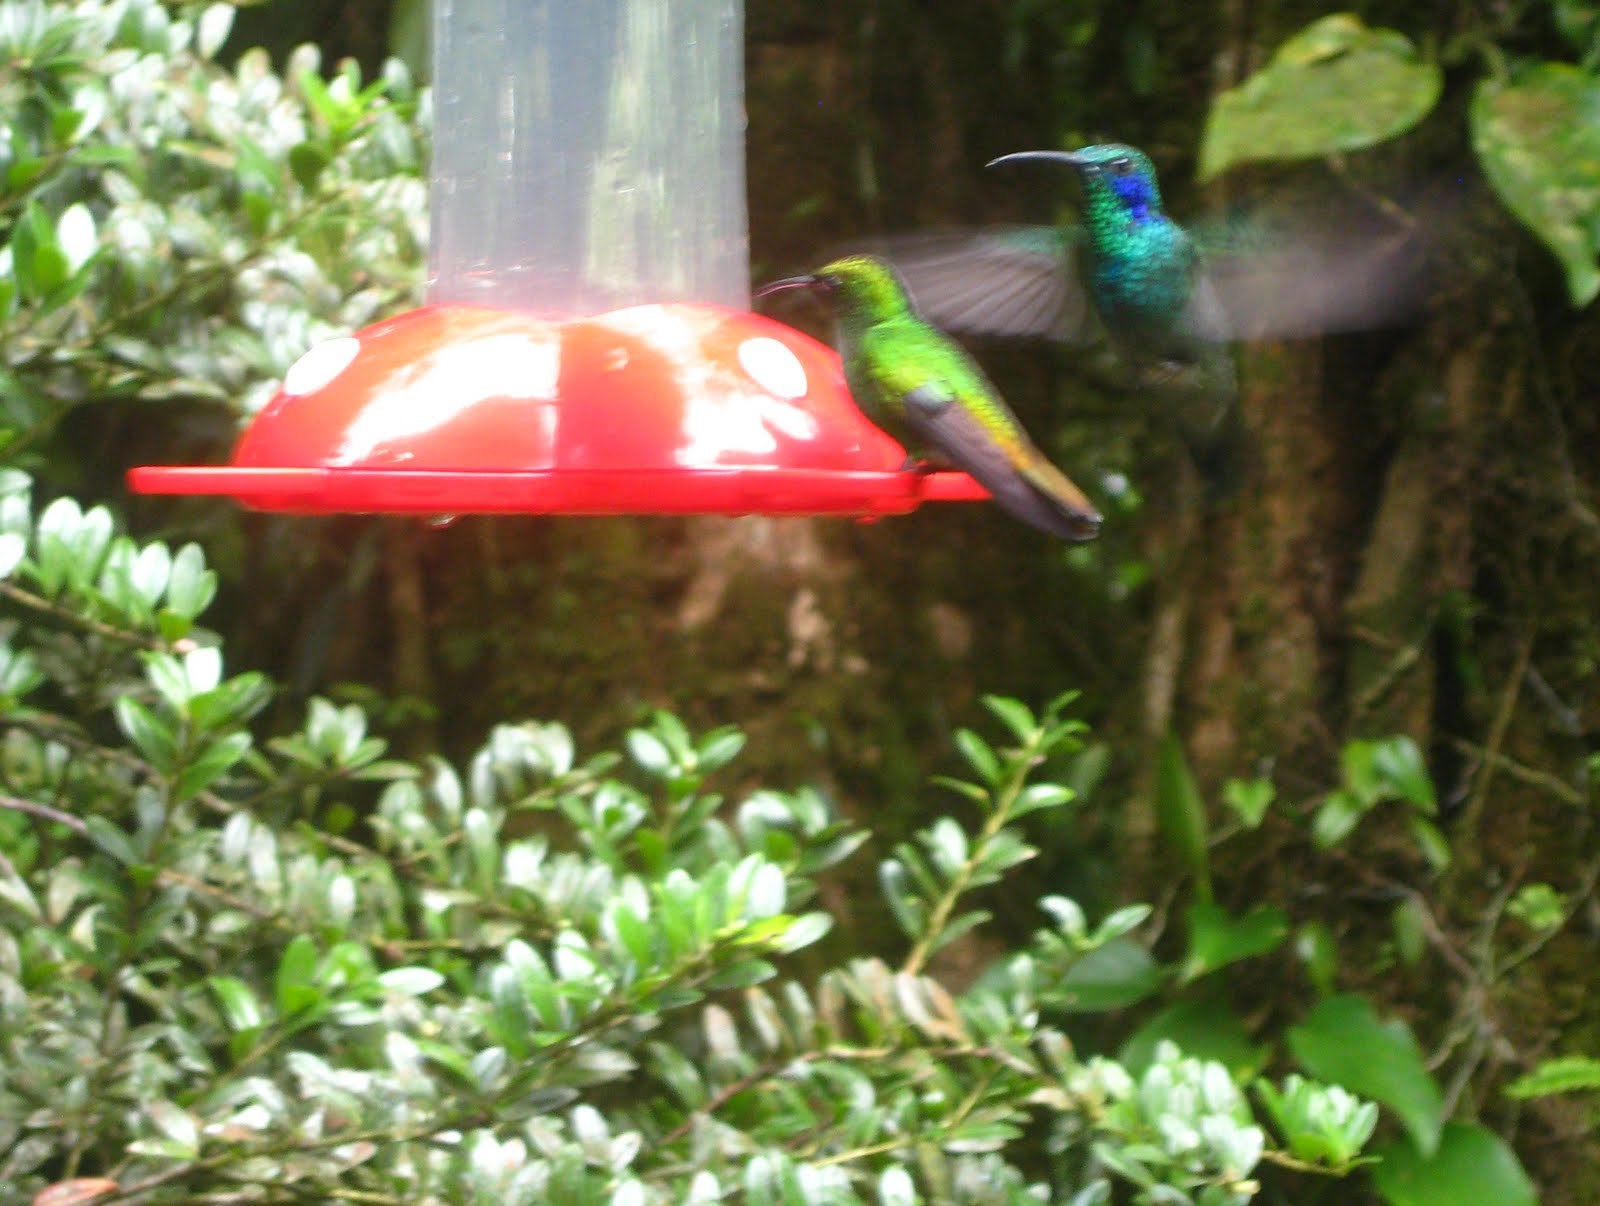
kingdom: Animalia
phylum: Chordata
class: Aves
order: Apodiformes
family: Trochilidae
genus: Microchera
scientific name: Microchera cupreiceps
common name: Coppery-headed emerald
